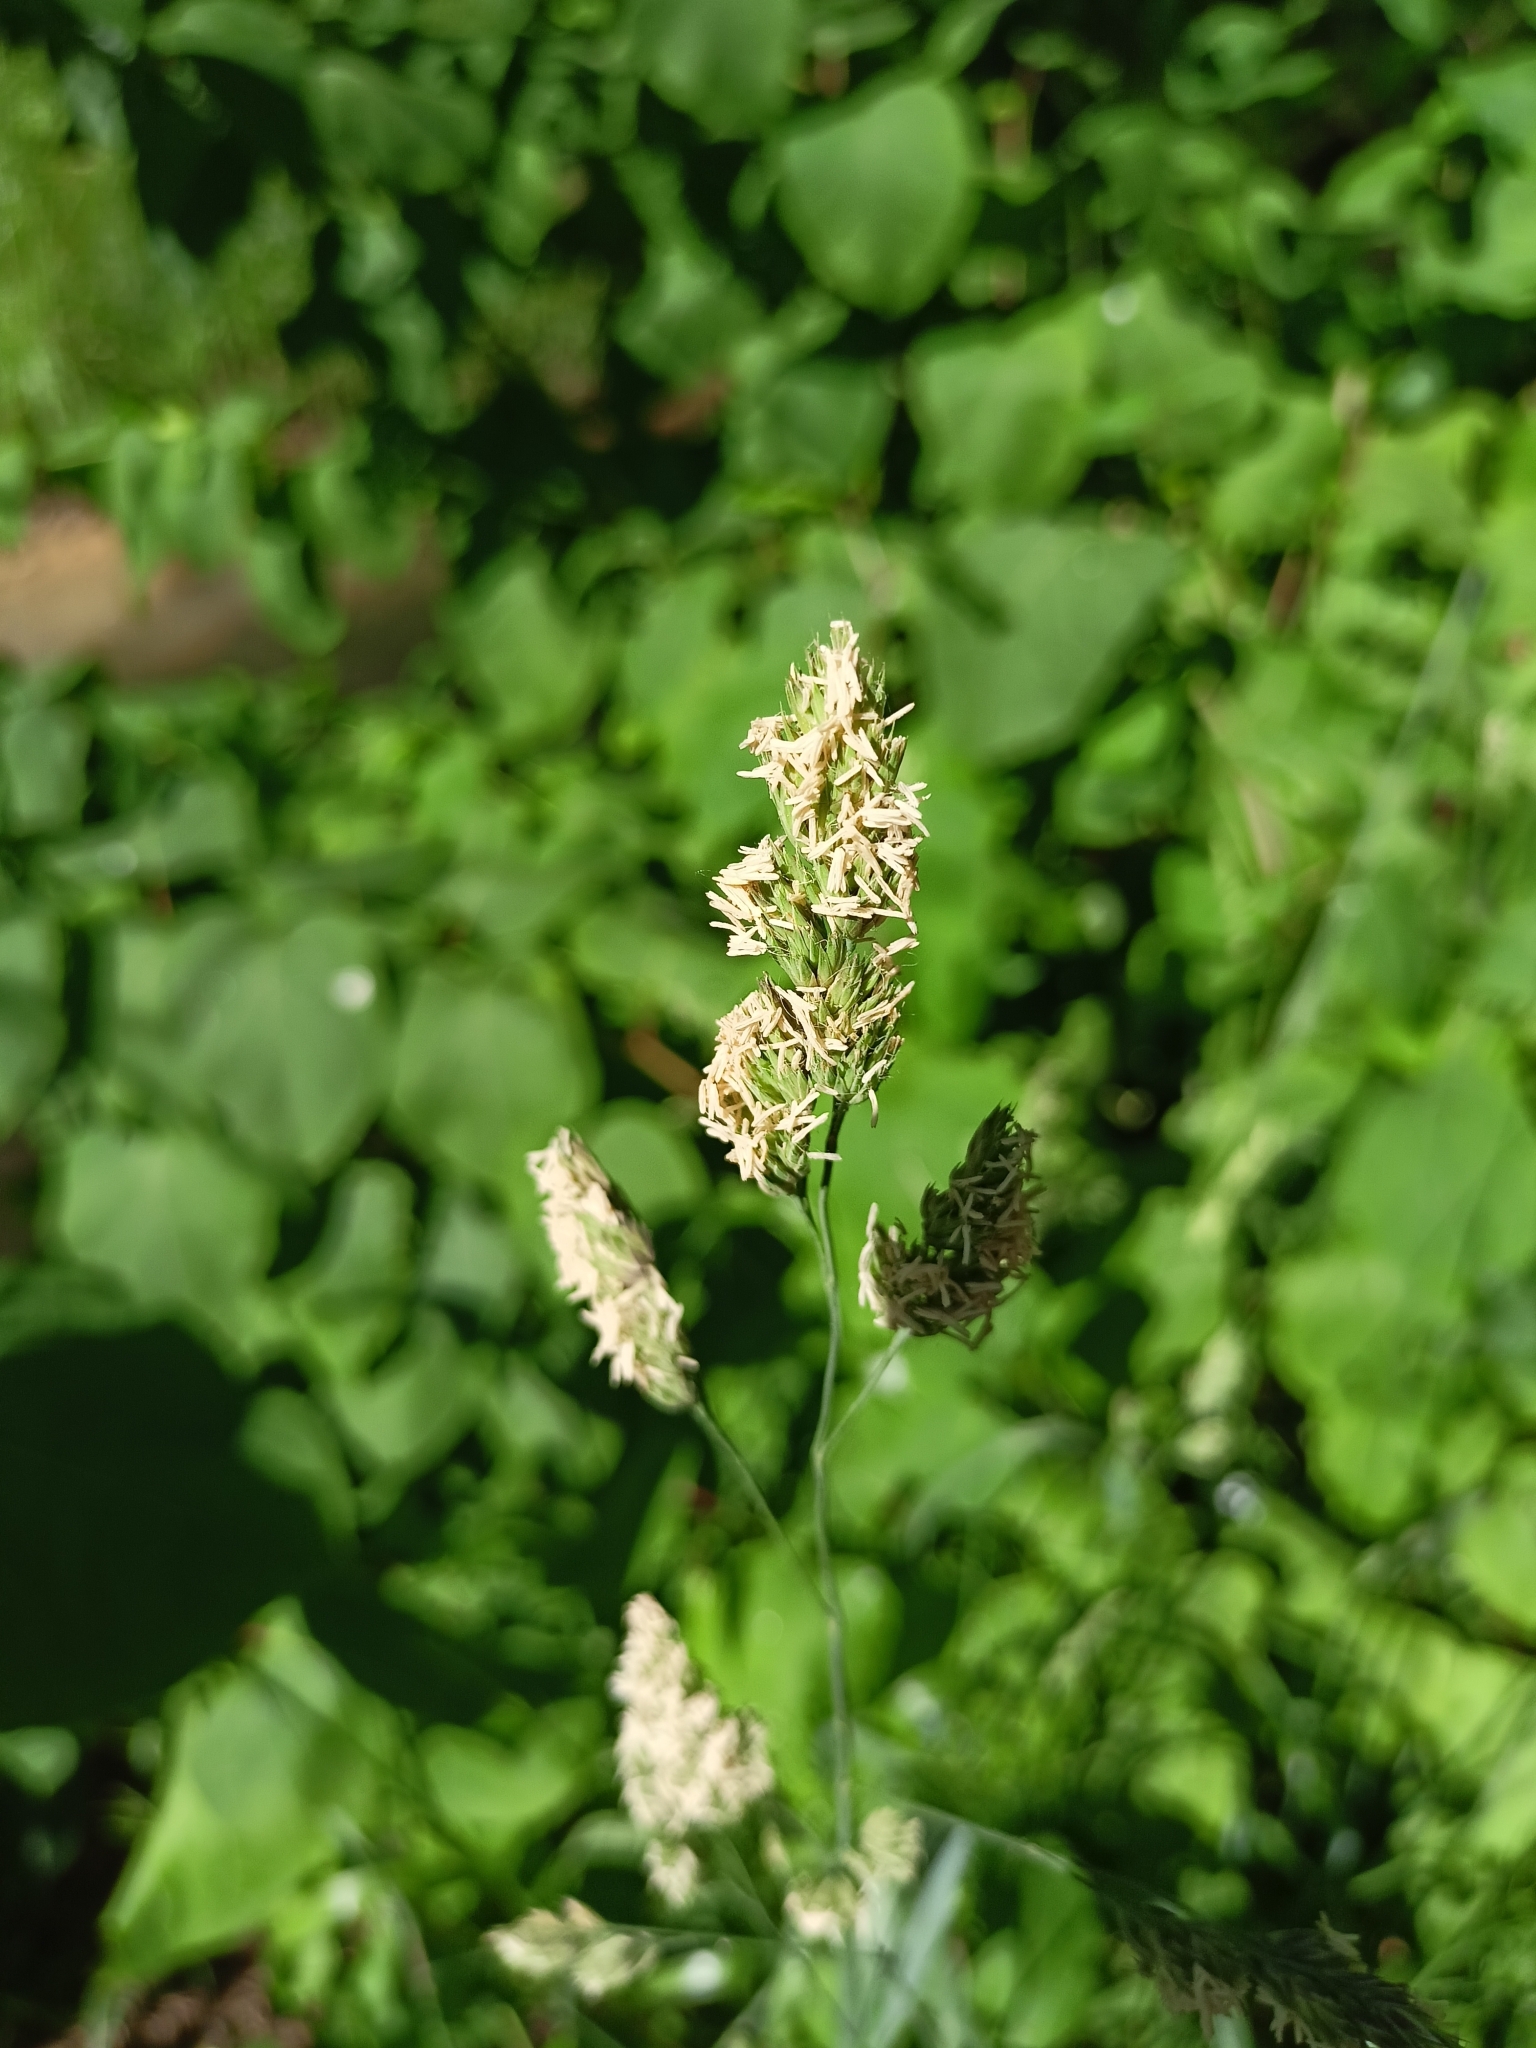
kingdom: Plantae
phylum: Tracheophyta
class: Liliopsida
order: Poales
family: Poaceae
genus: Dactylis
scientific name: Dactylis glomerata
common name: Orchardgrass
